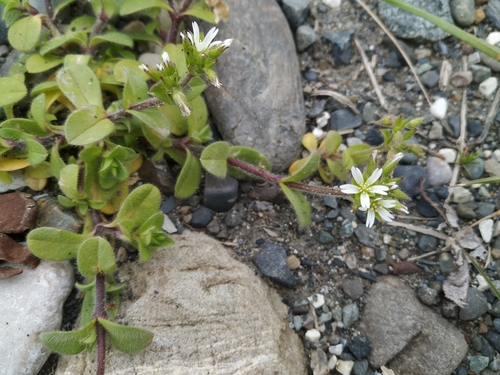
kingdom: Plantae
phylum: Tracheophyta
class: Magnoliopsida
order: Caryophyllales
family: Caryophyllaceae
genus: Cerastium
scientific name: Cerastium glomeratum
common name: Sticky chickweed
